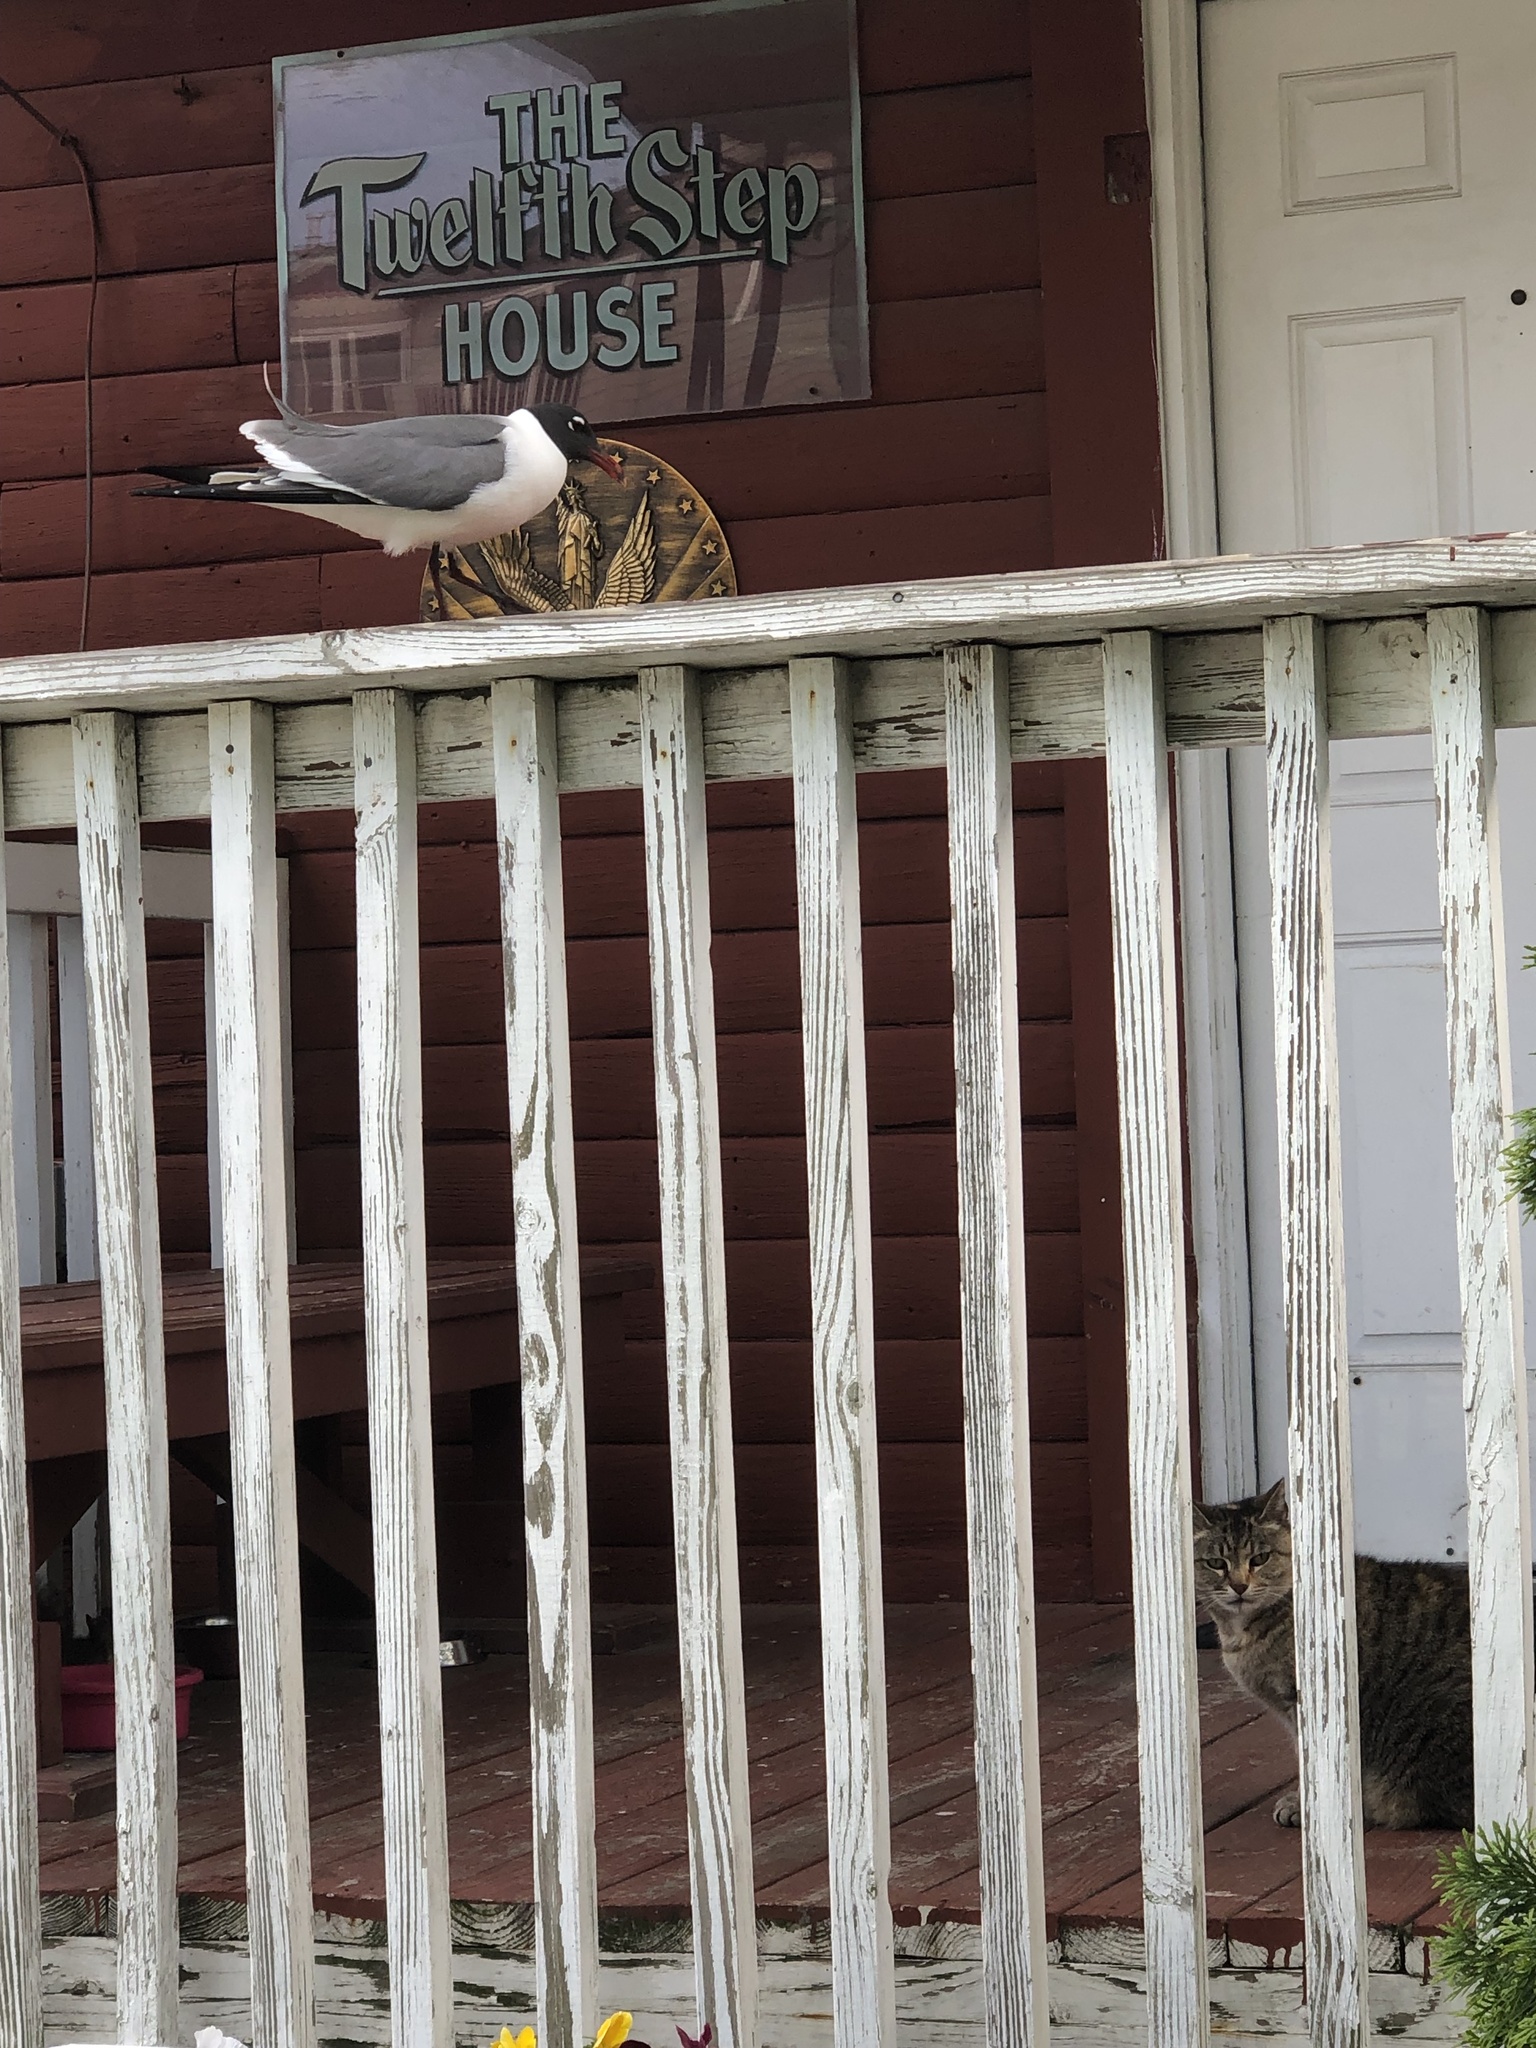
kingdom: Animalia
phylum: Chordata
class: Aves
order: Charadriiformes
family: Laridae
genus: Leucophaeus
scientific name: Leucophaeus atricilla
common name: Laughing gull
